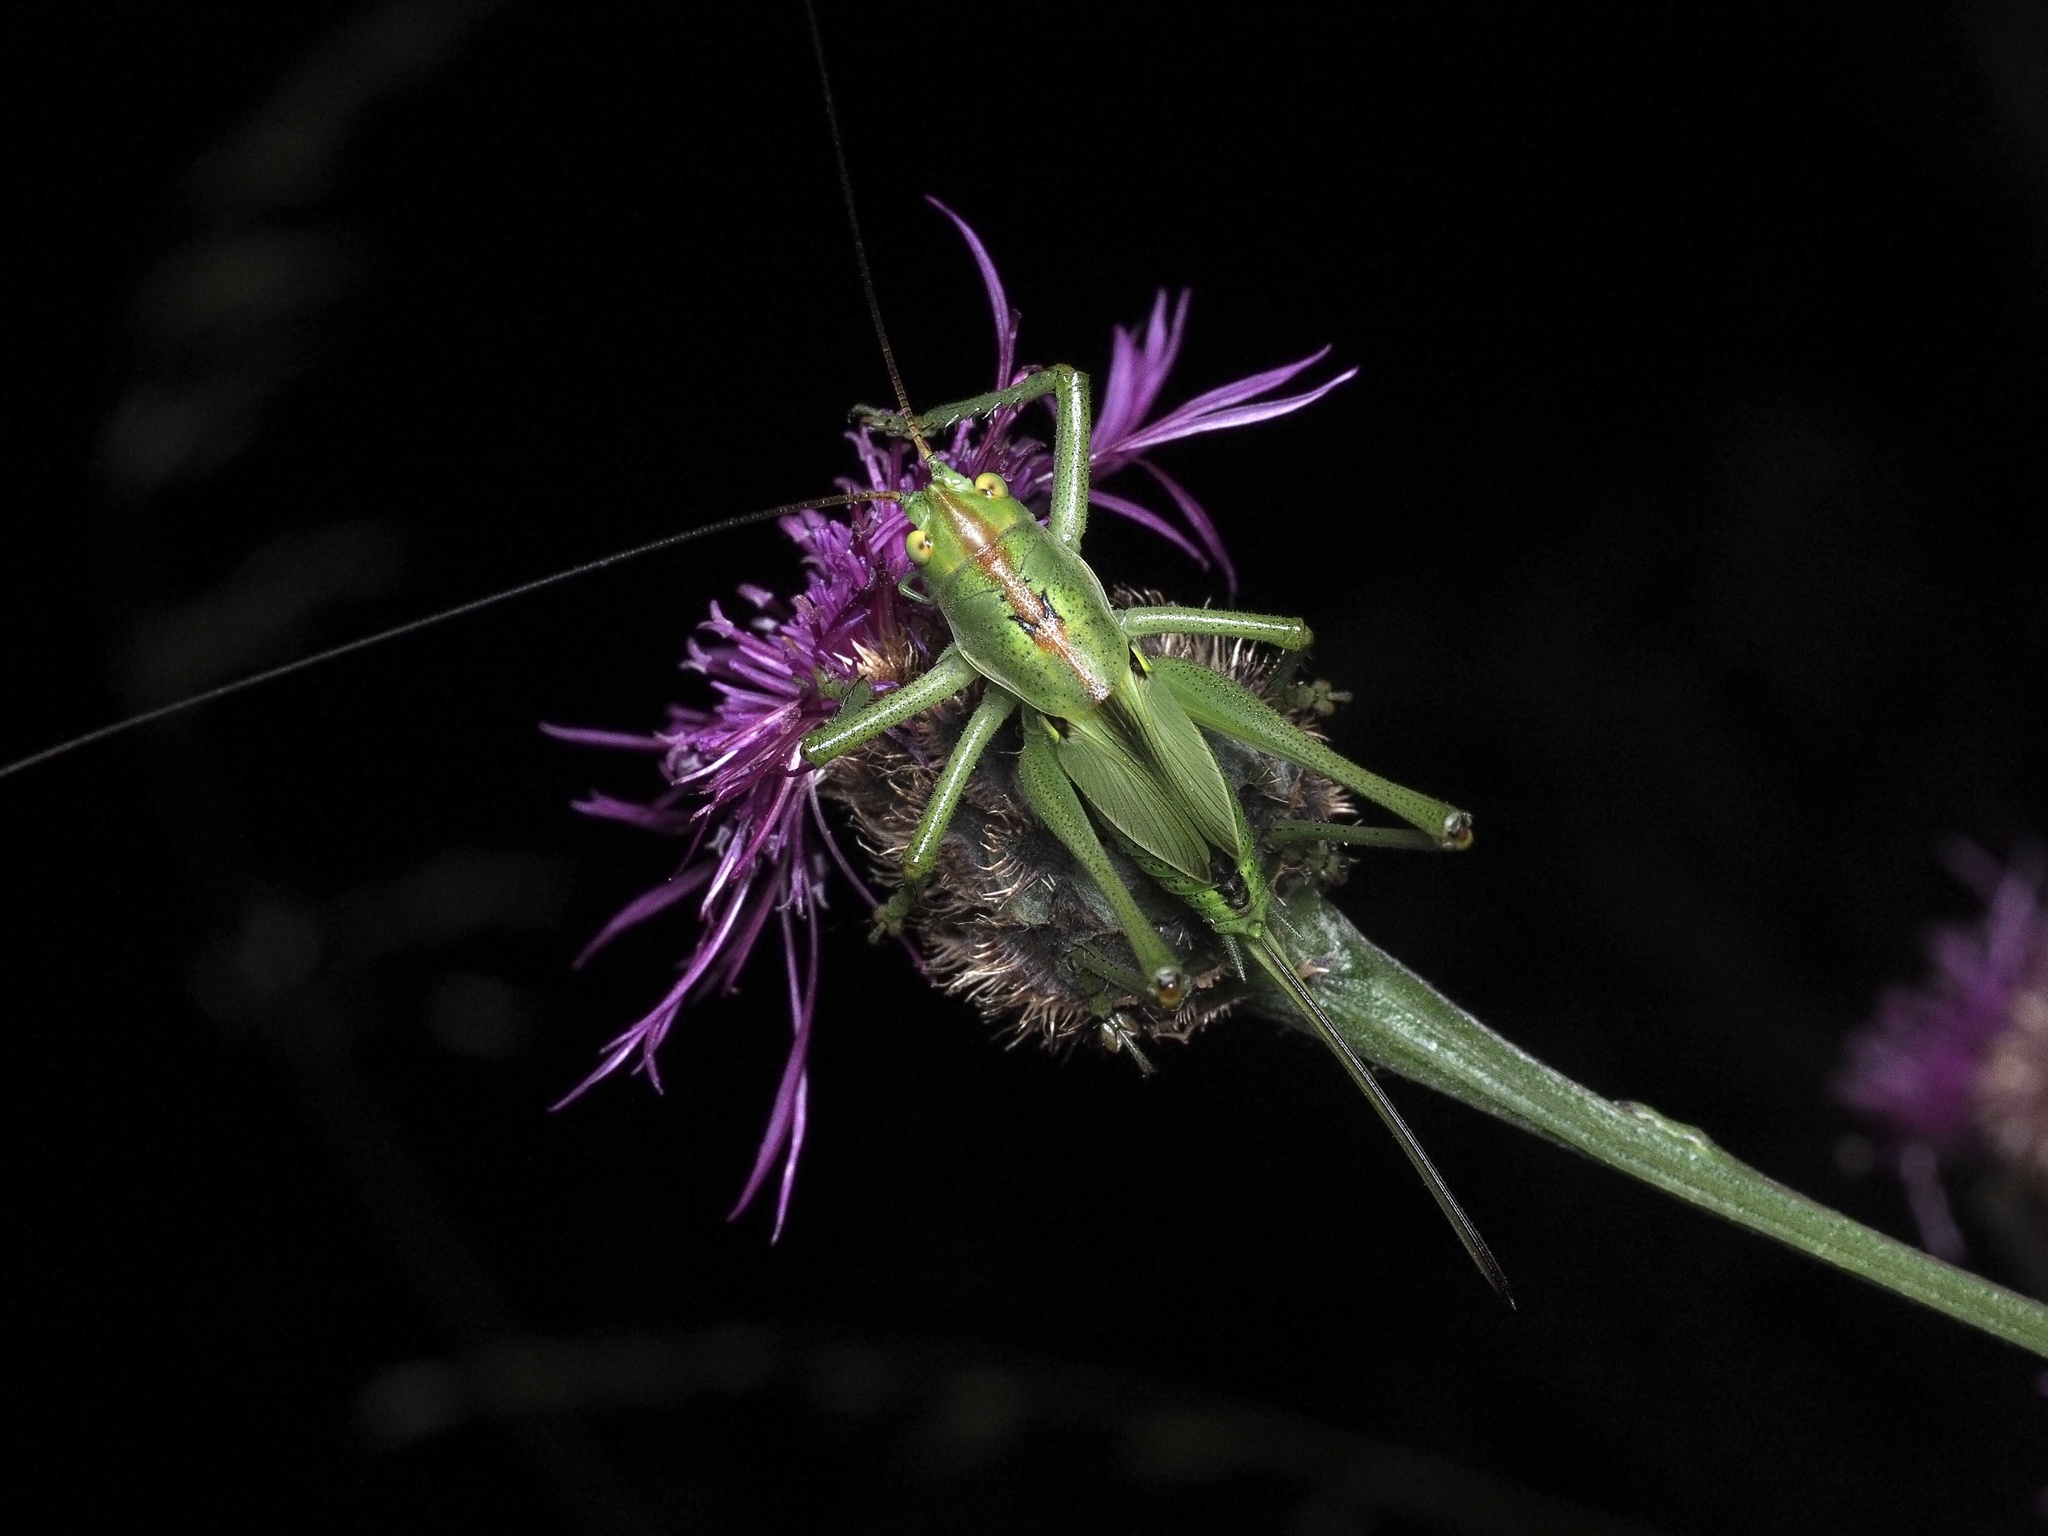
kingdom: Animalia
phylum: Arthropoda
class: Insecta
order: Orthoptera
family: Tettigoniidae
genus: Tettigonia
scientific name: Tettigonia viridissima
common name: Great green bush-cricket
